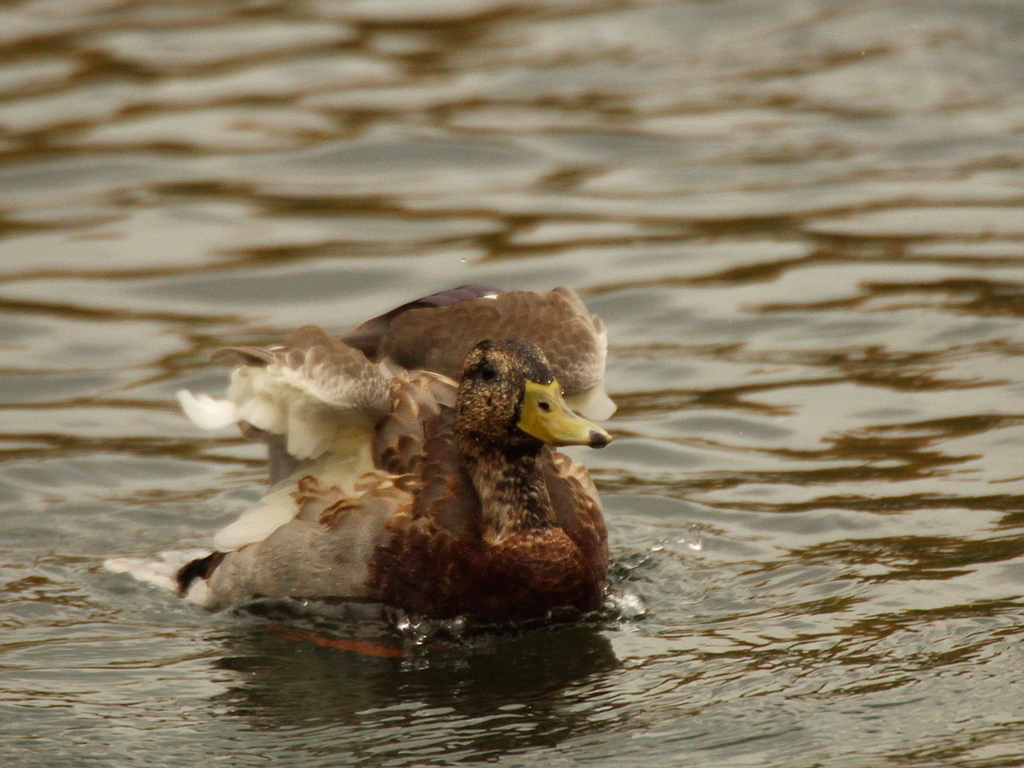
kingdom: Animalia
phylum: Chordata
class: Aves
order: Anseriformes
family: Anatidae
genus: Anas
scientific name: Anas platyrhynchos
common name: Mallard
